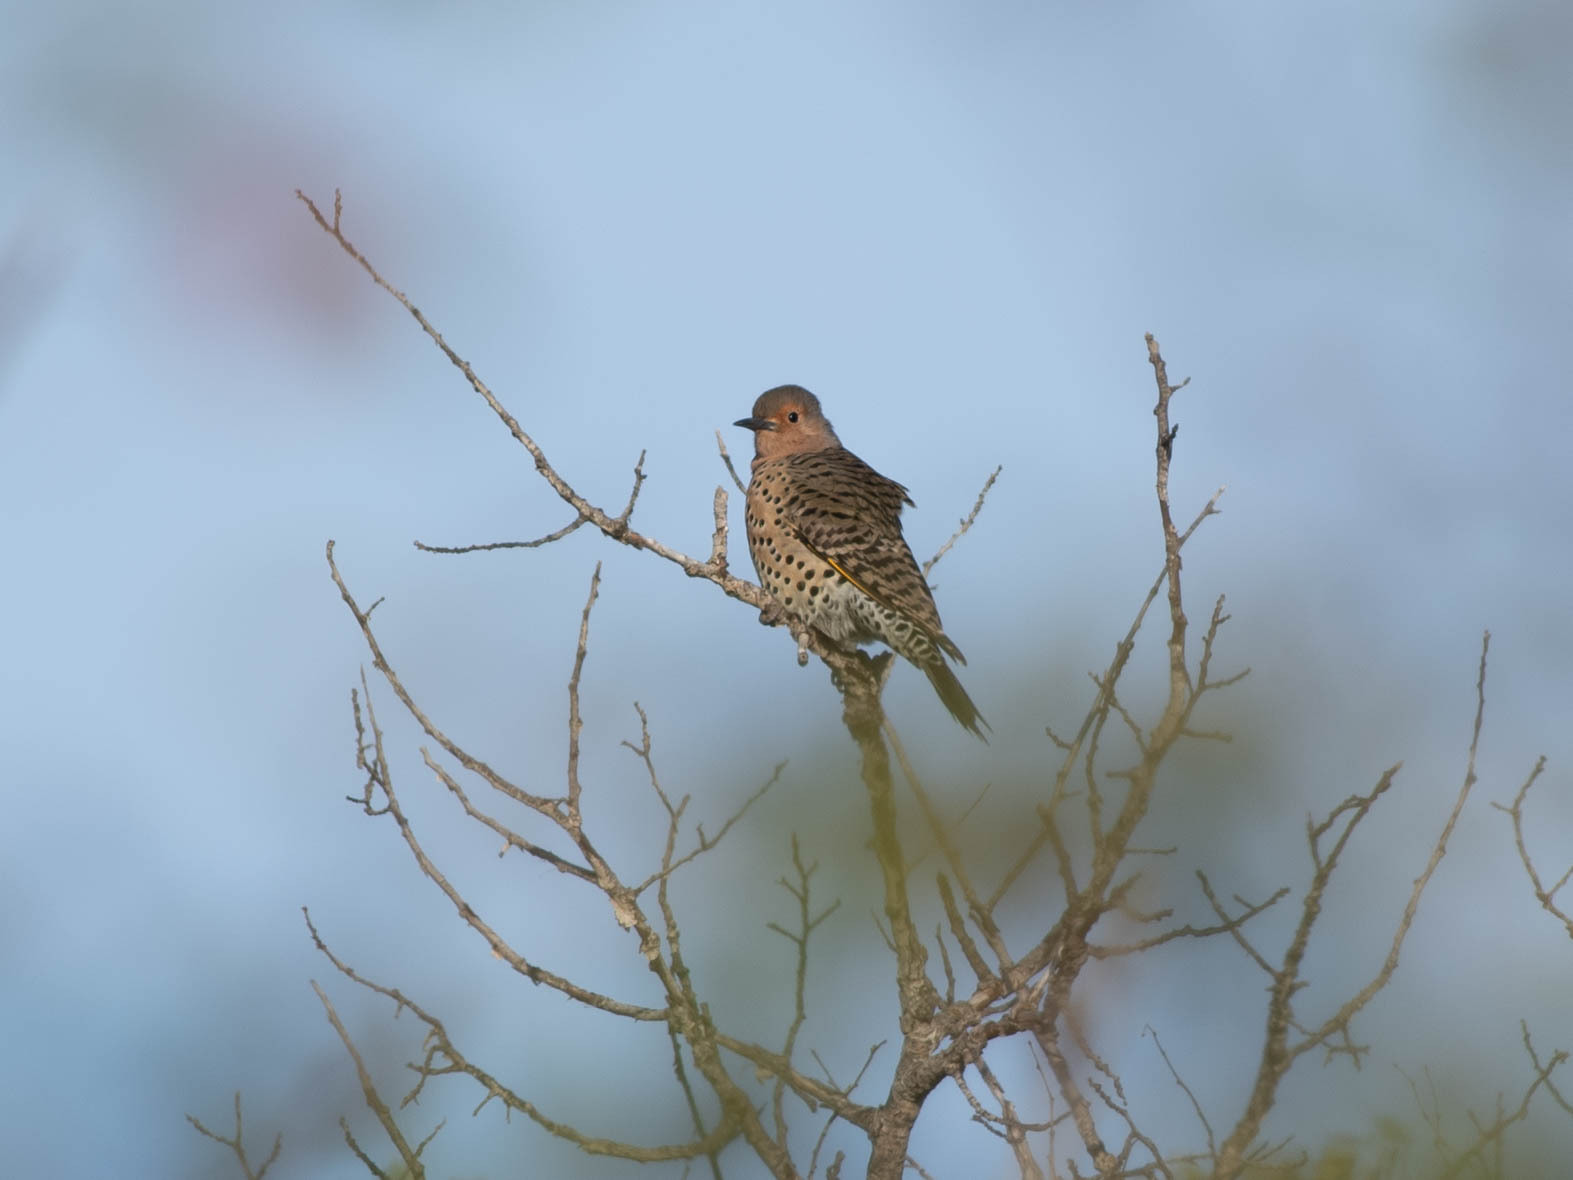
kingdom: Animalia
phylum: Chordata
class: Aves
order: Piciformes
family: Picidae
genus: Colaptes
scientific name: Colaptes auratus
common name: Northern flicker
